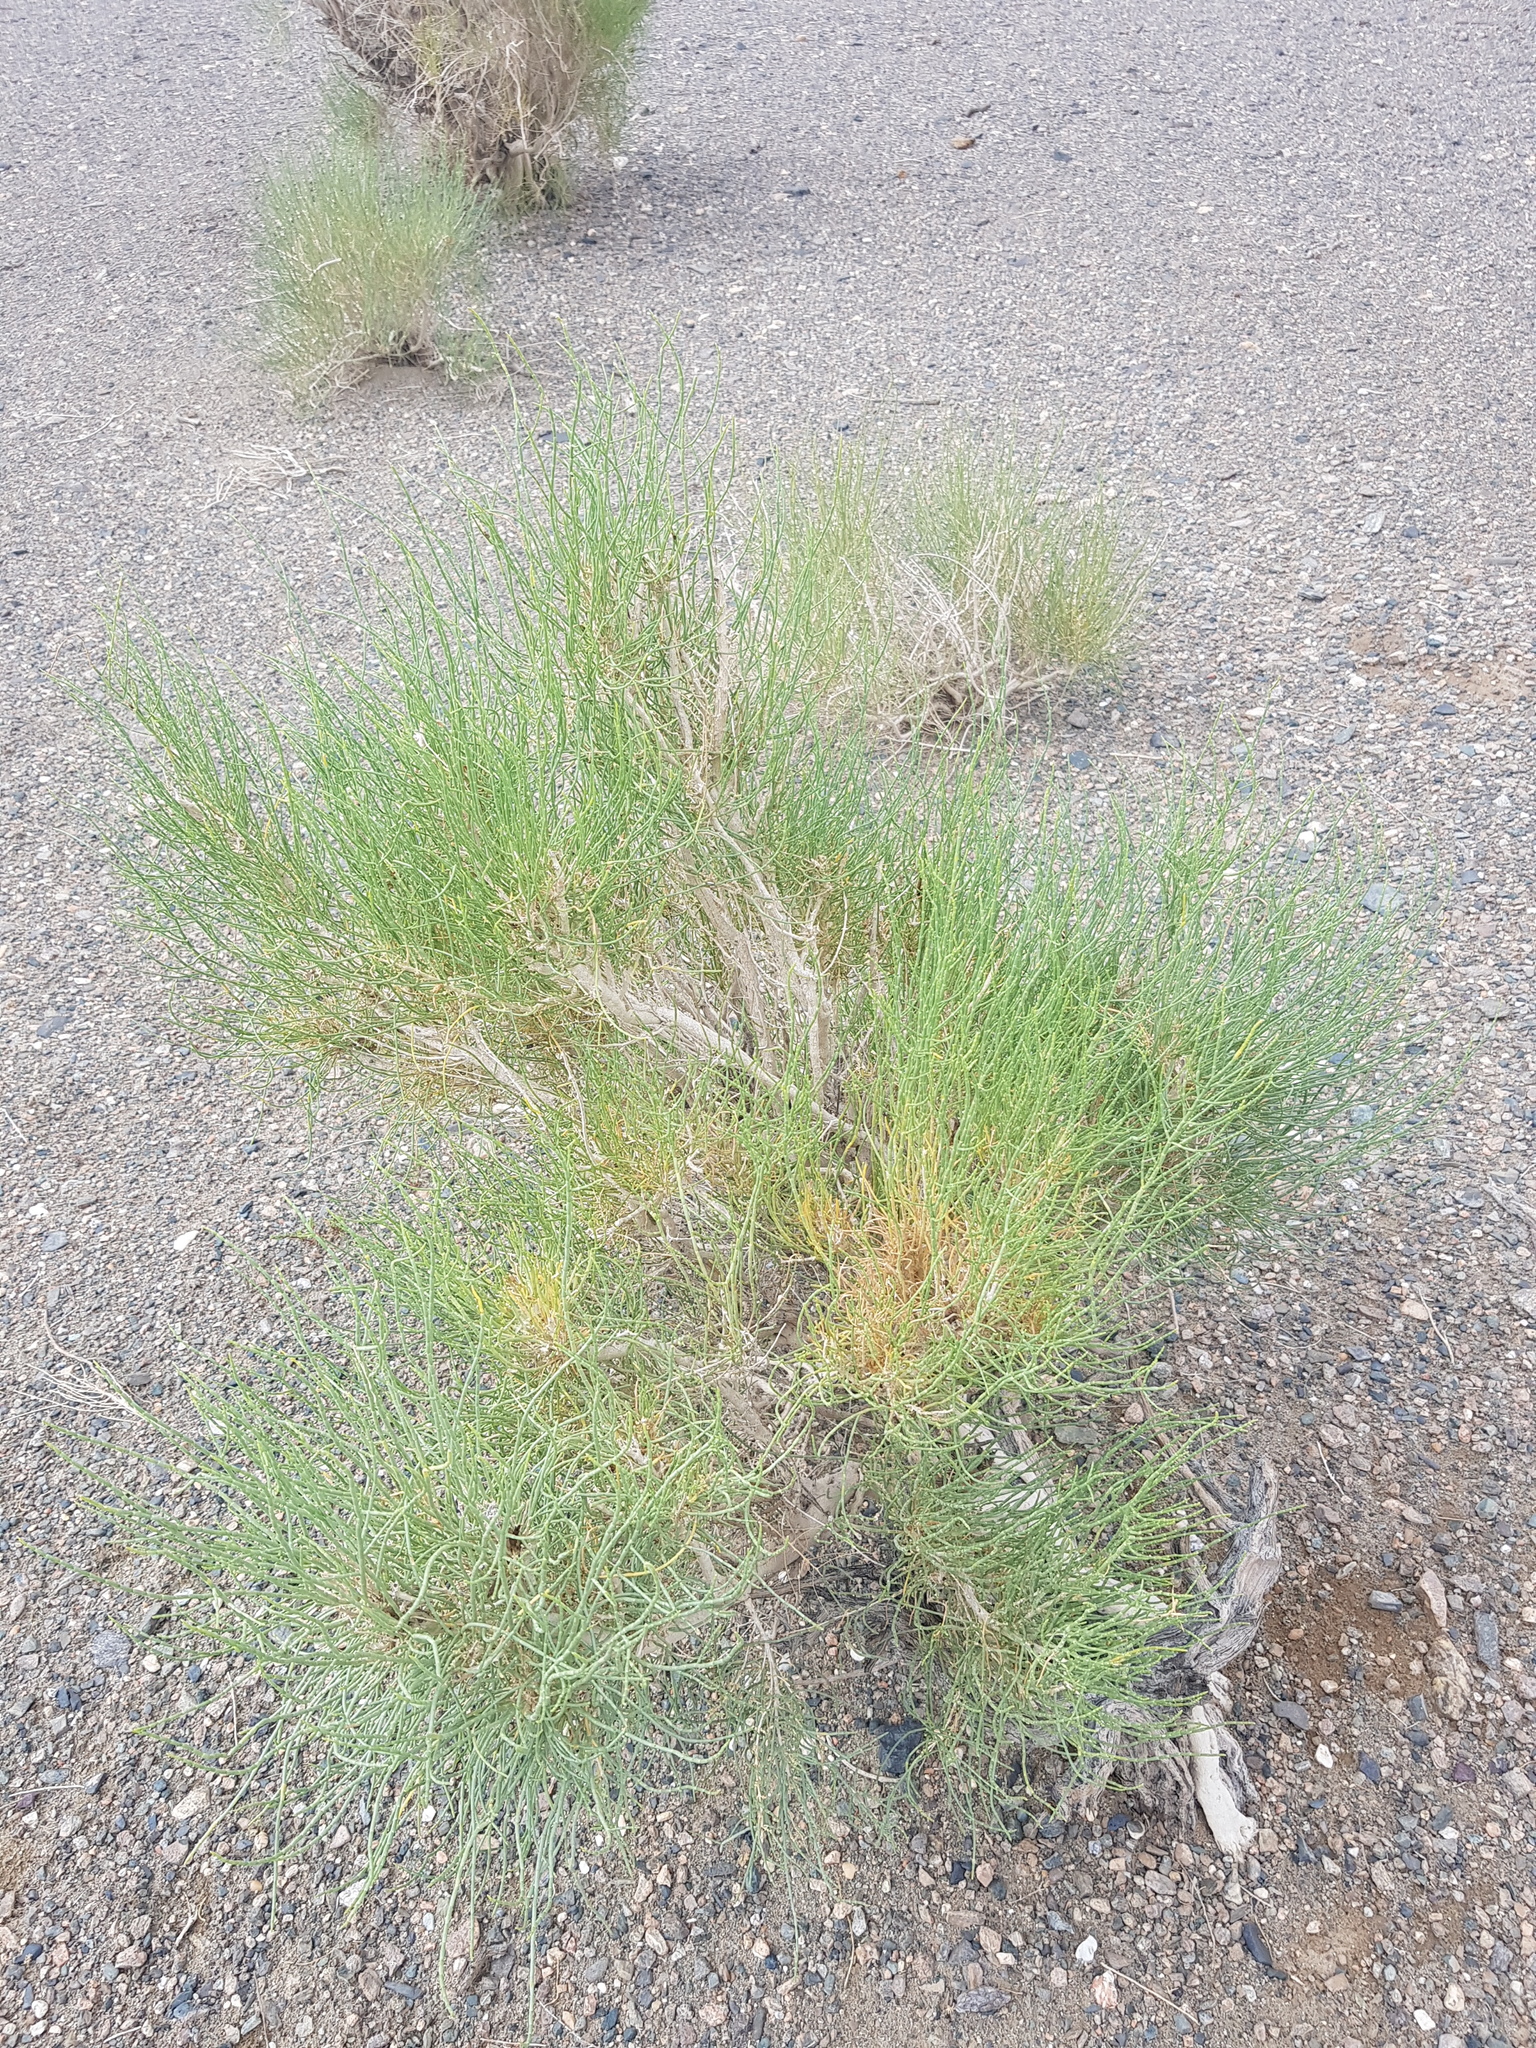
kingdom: Plantae
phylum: Tracheophyta
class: Magnoliopsida
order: Caryophyllales
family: Amaranthaceae
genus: Haloxylon
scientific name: Haloxylon ammodendron
